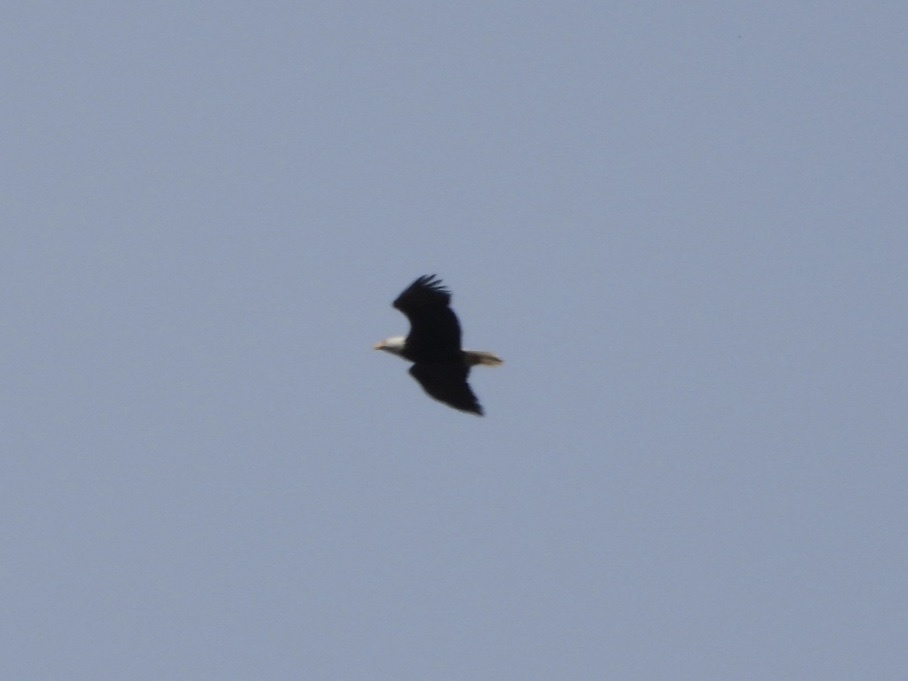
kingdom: Animalia
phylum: Chordata
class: Aves
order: Accipitriformes
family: Accipitridae
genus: Haliaeetus
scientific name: Haliaeetus leucocephalus
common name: Bald eagle
